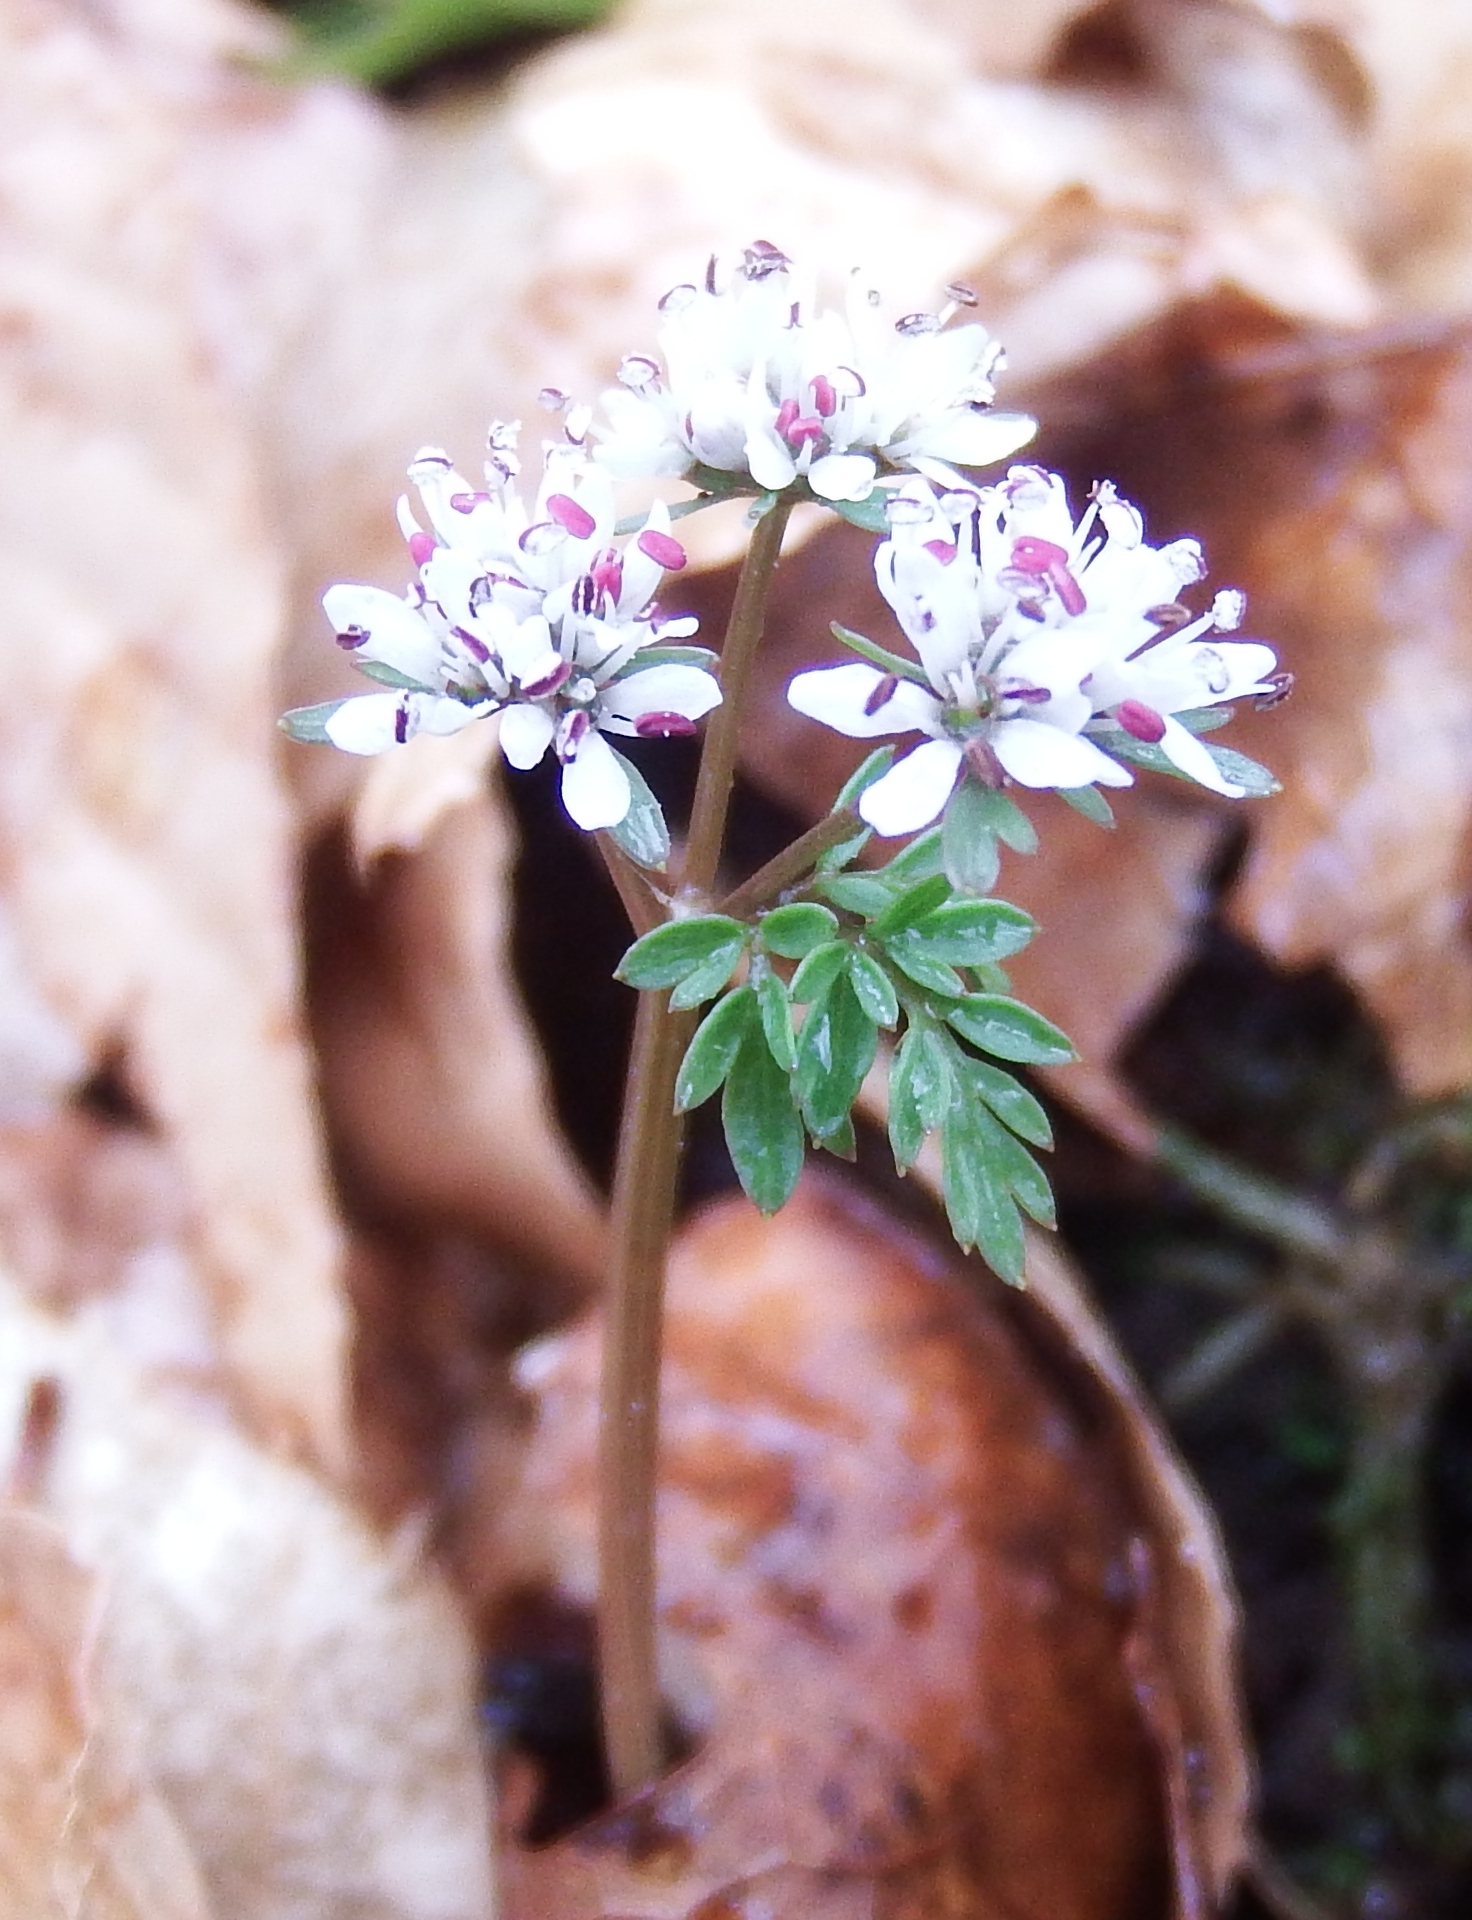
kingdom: Plantae
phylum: Tracheophyta
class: Magnoliopsida
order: Apiales
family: Apiaceae
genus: Erigenia
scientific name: Erigenia bulbosa
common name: Pepper-and-salt
